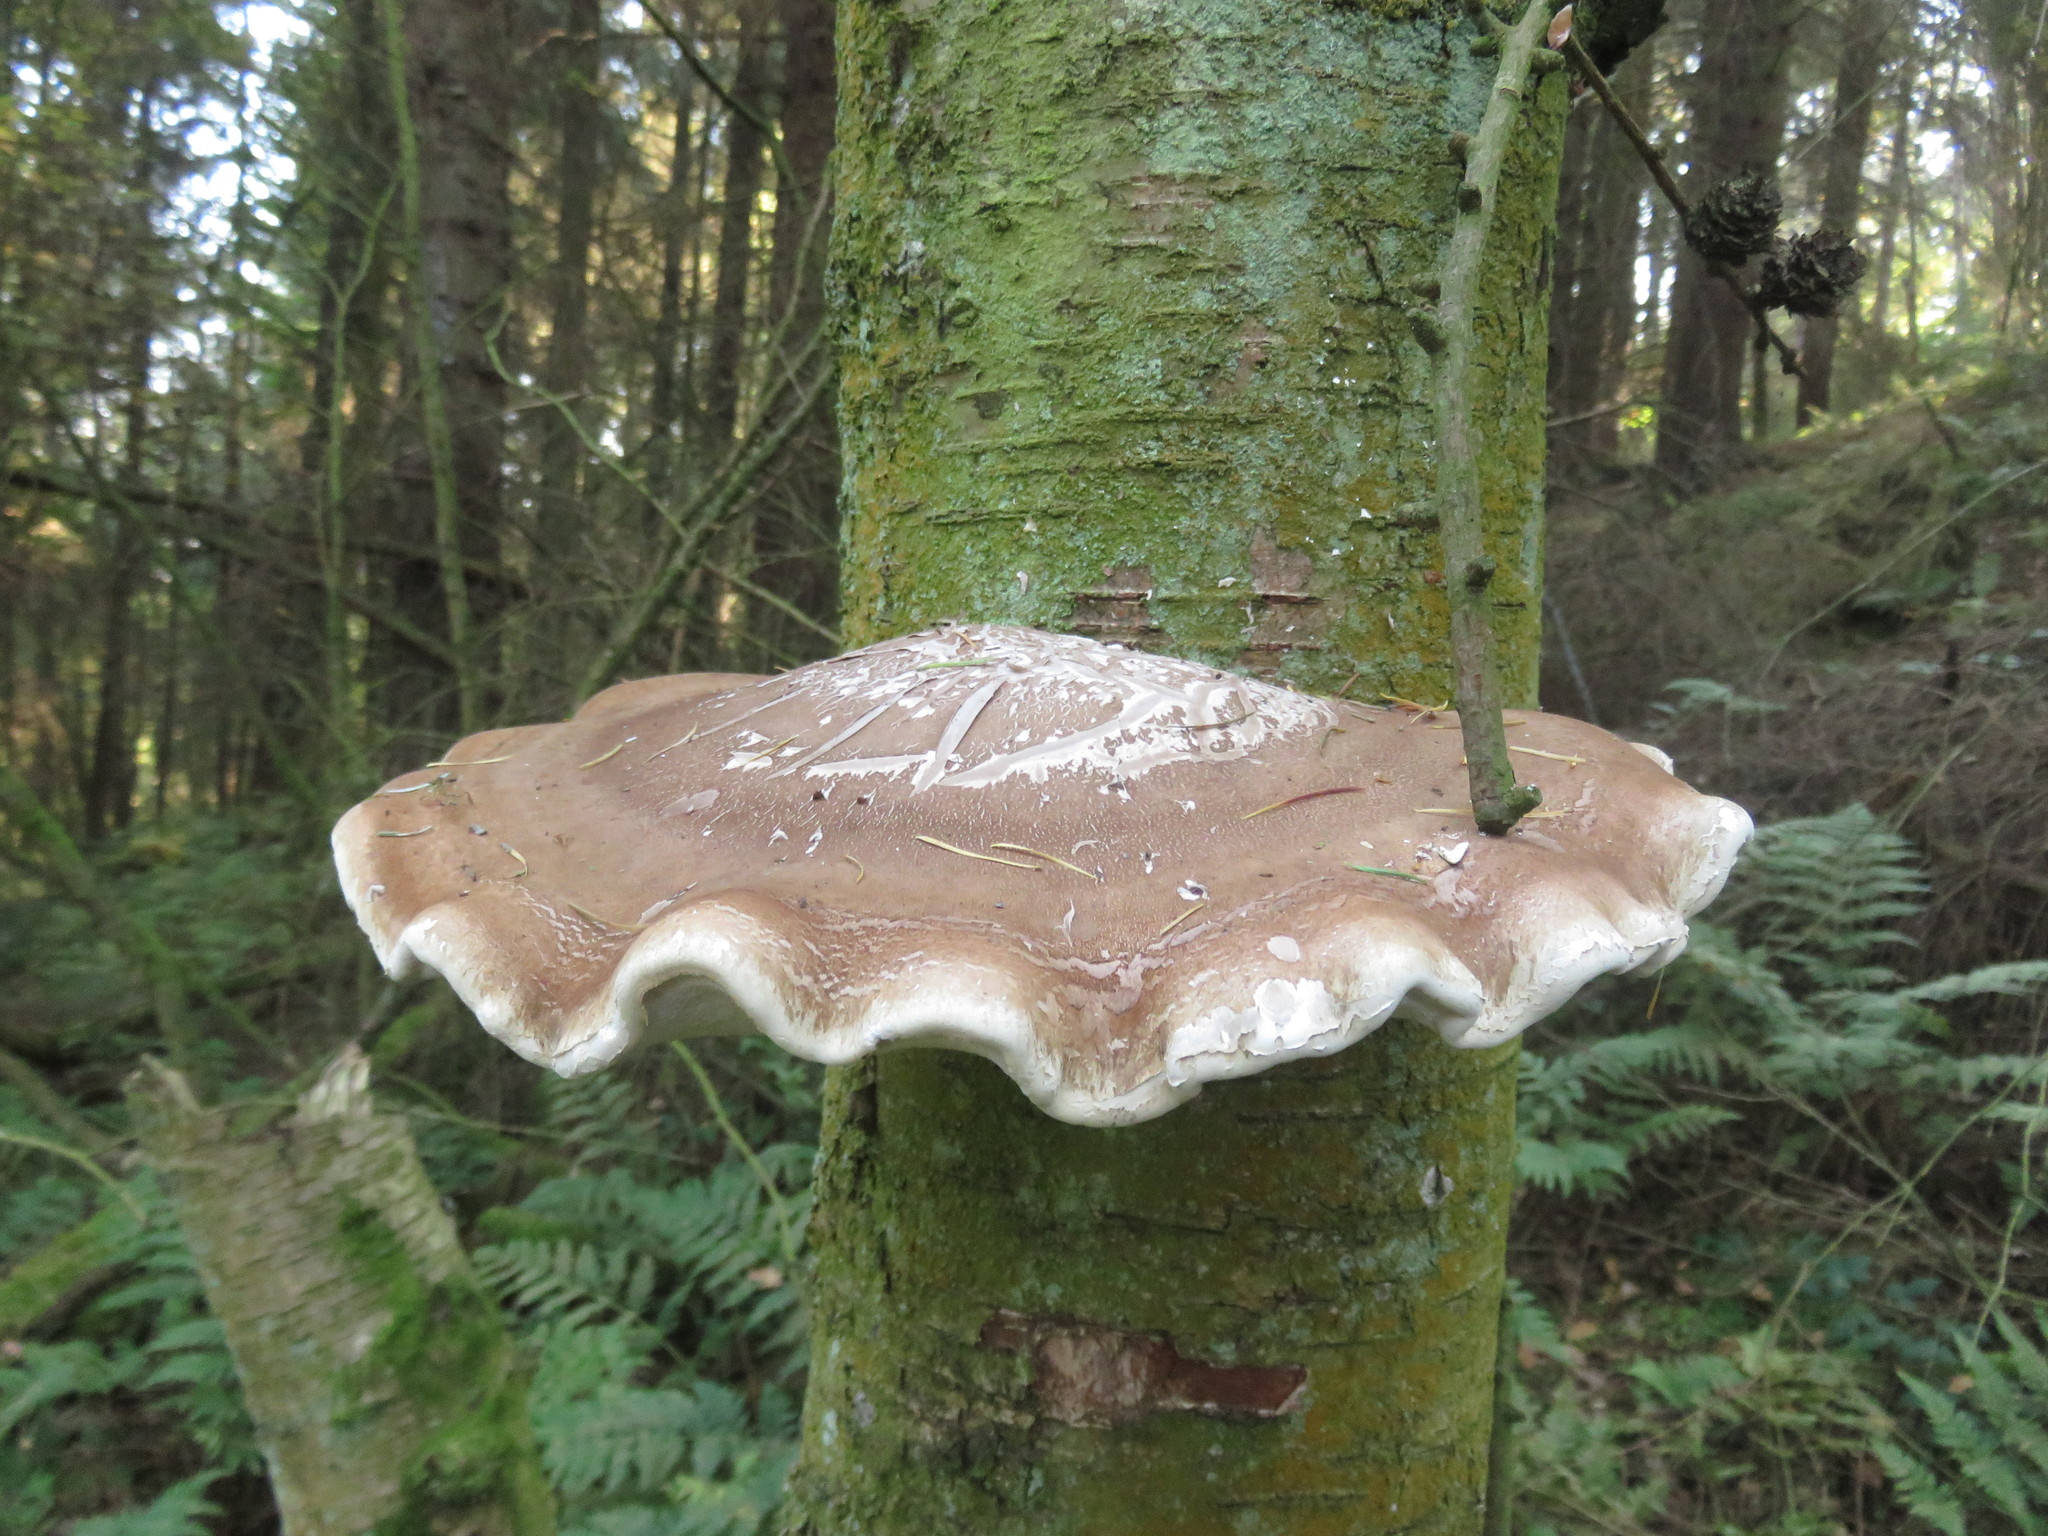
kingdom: Fungi
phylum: Basidiomycota
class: Agaricomycetes
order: Polyporales
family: Fomitopsidaceae
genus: Fomitopsis
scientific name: Fomitopsis betulina
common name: Birch polypore
